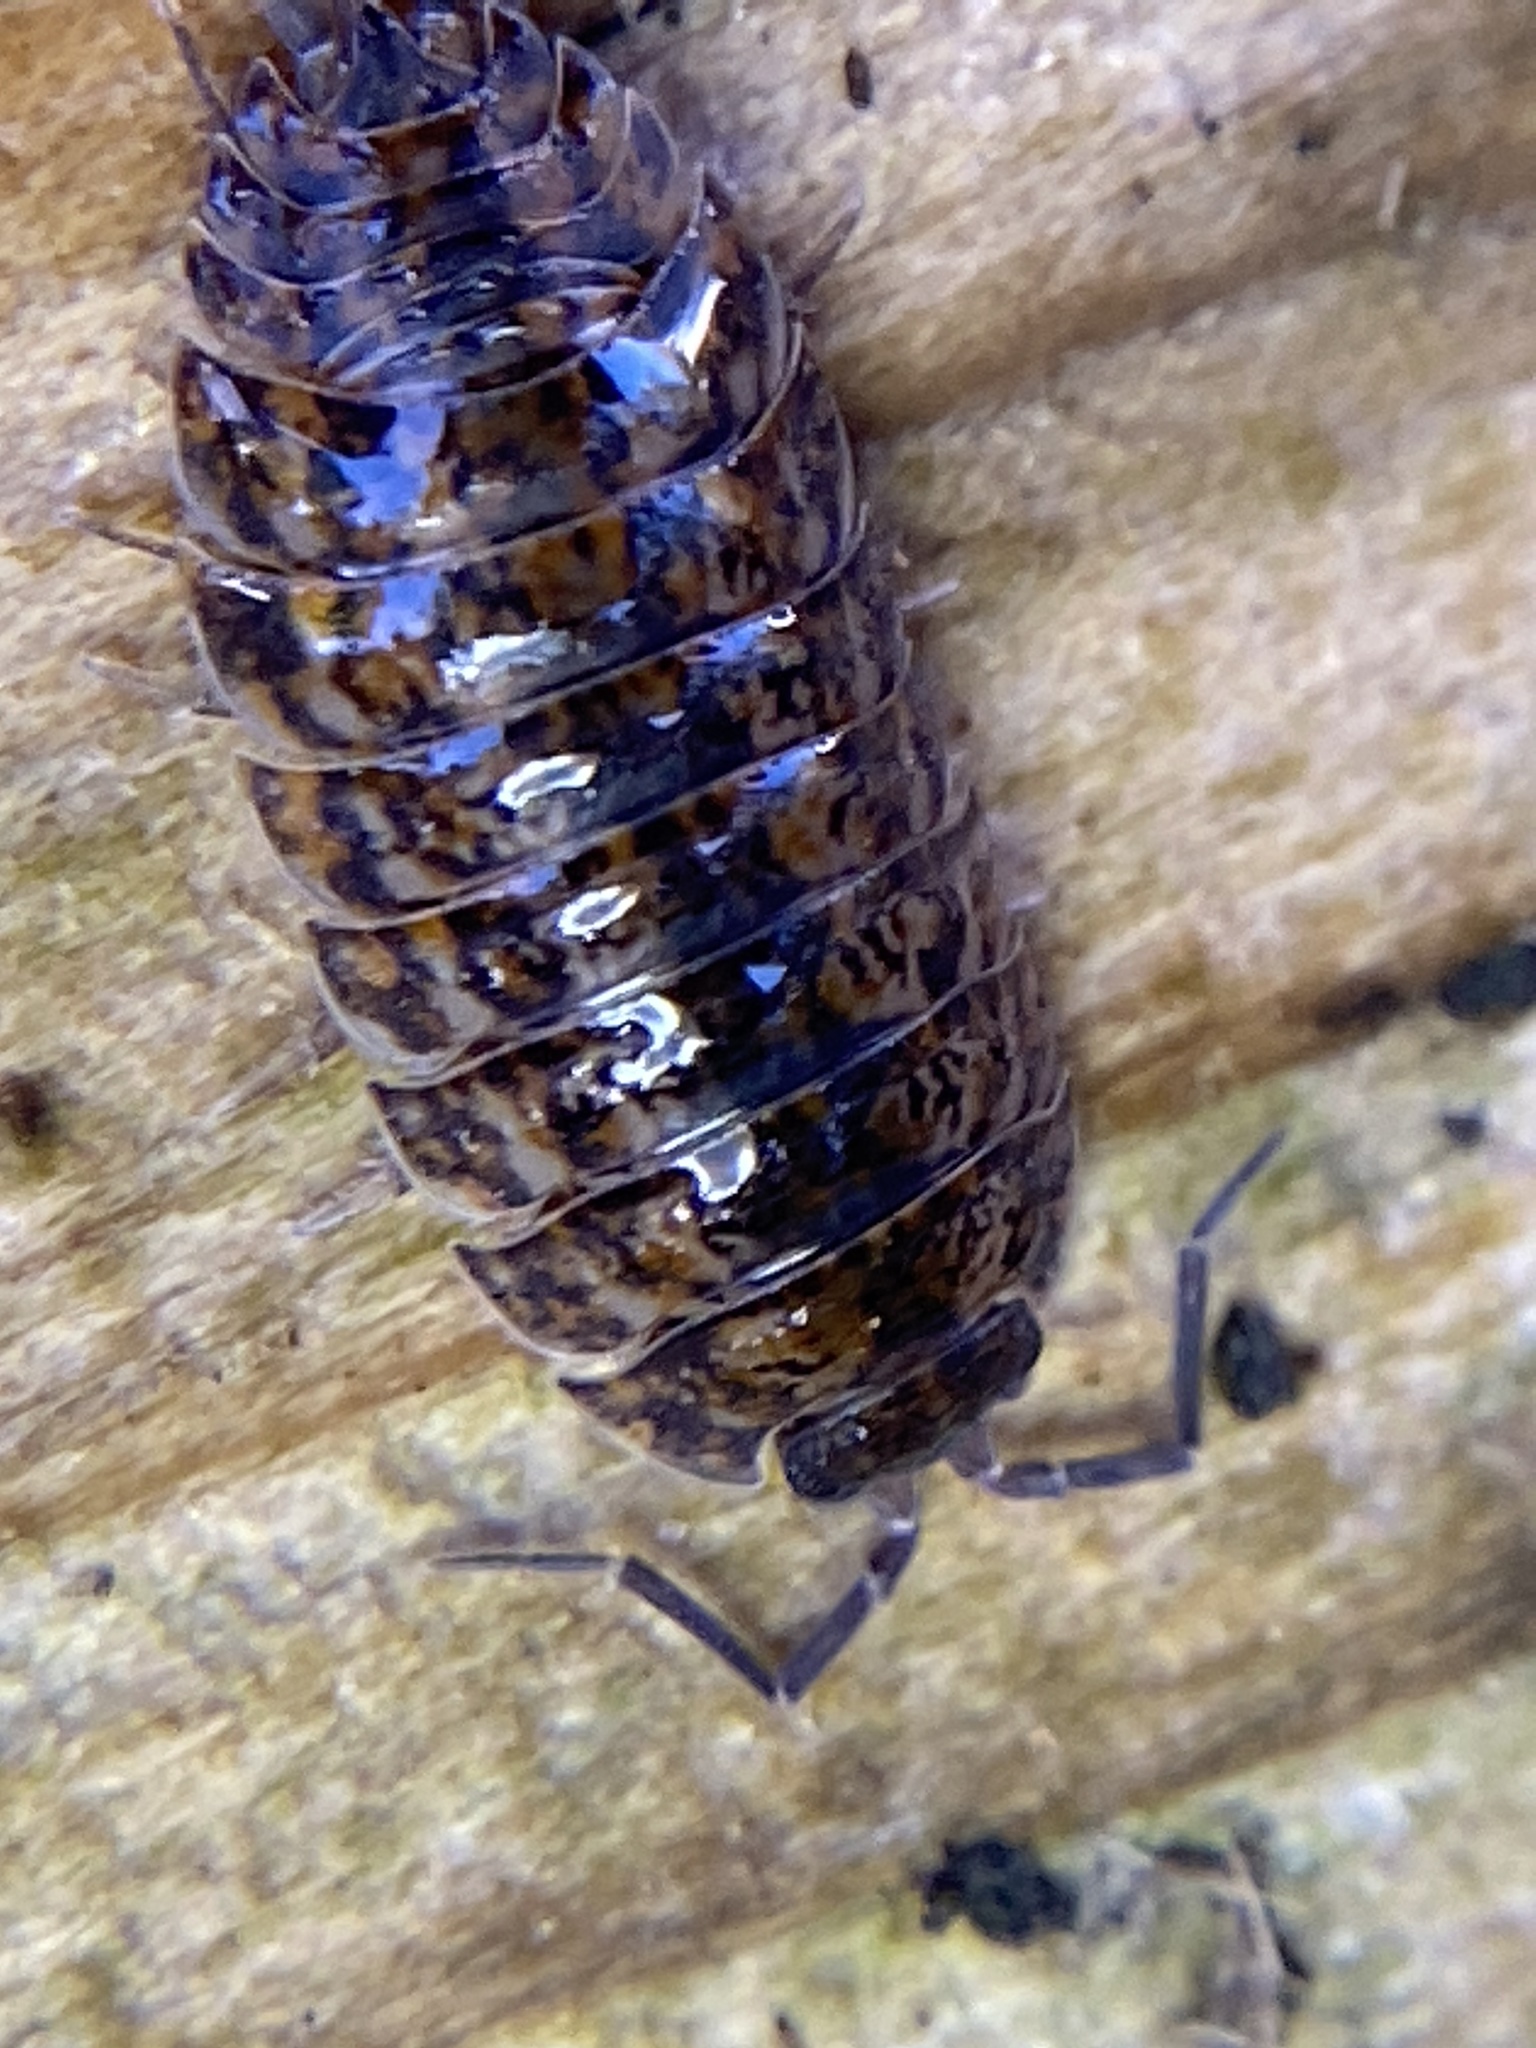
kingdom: Animalia
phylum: Arthropoda
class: Malacostraca
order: Isopoda
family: Trachelipodidae
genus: Trachelipus
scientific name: Trachelipus rathkii
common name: Isopod
